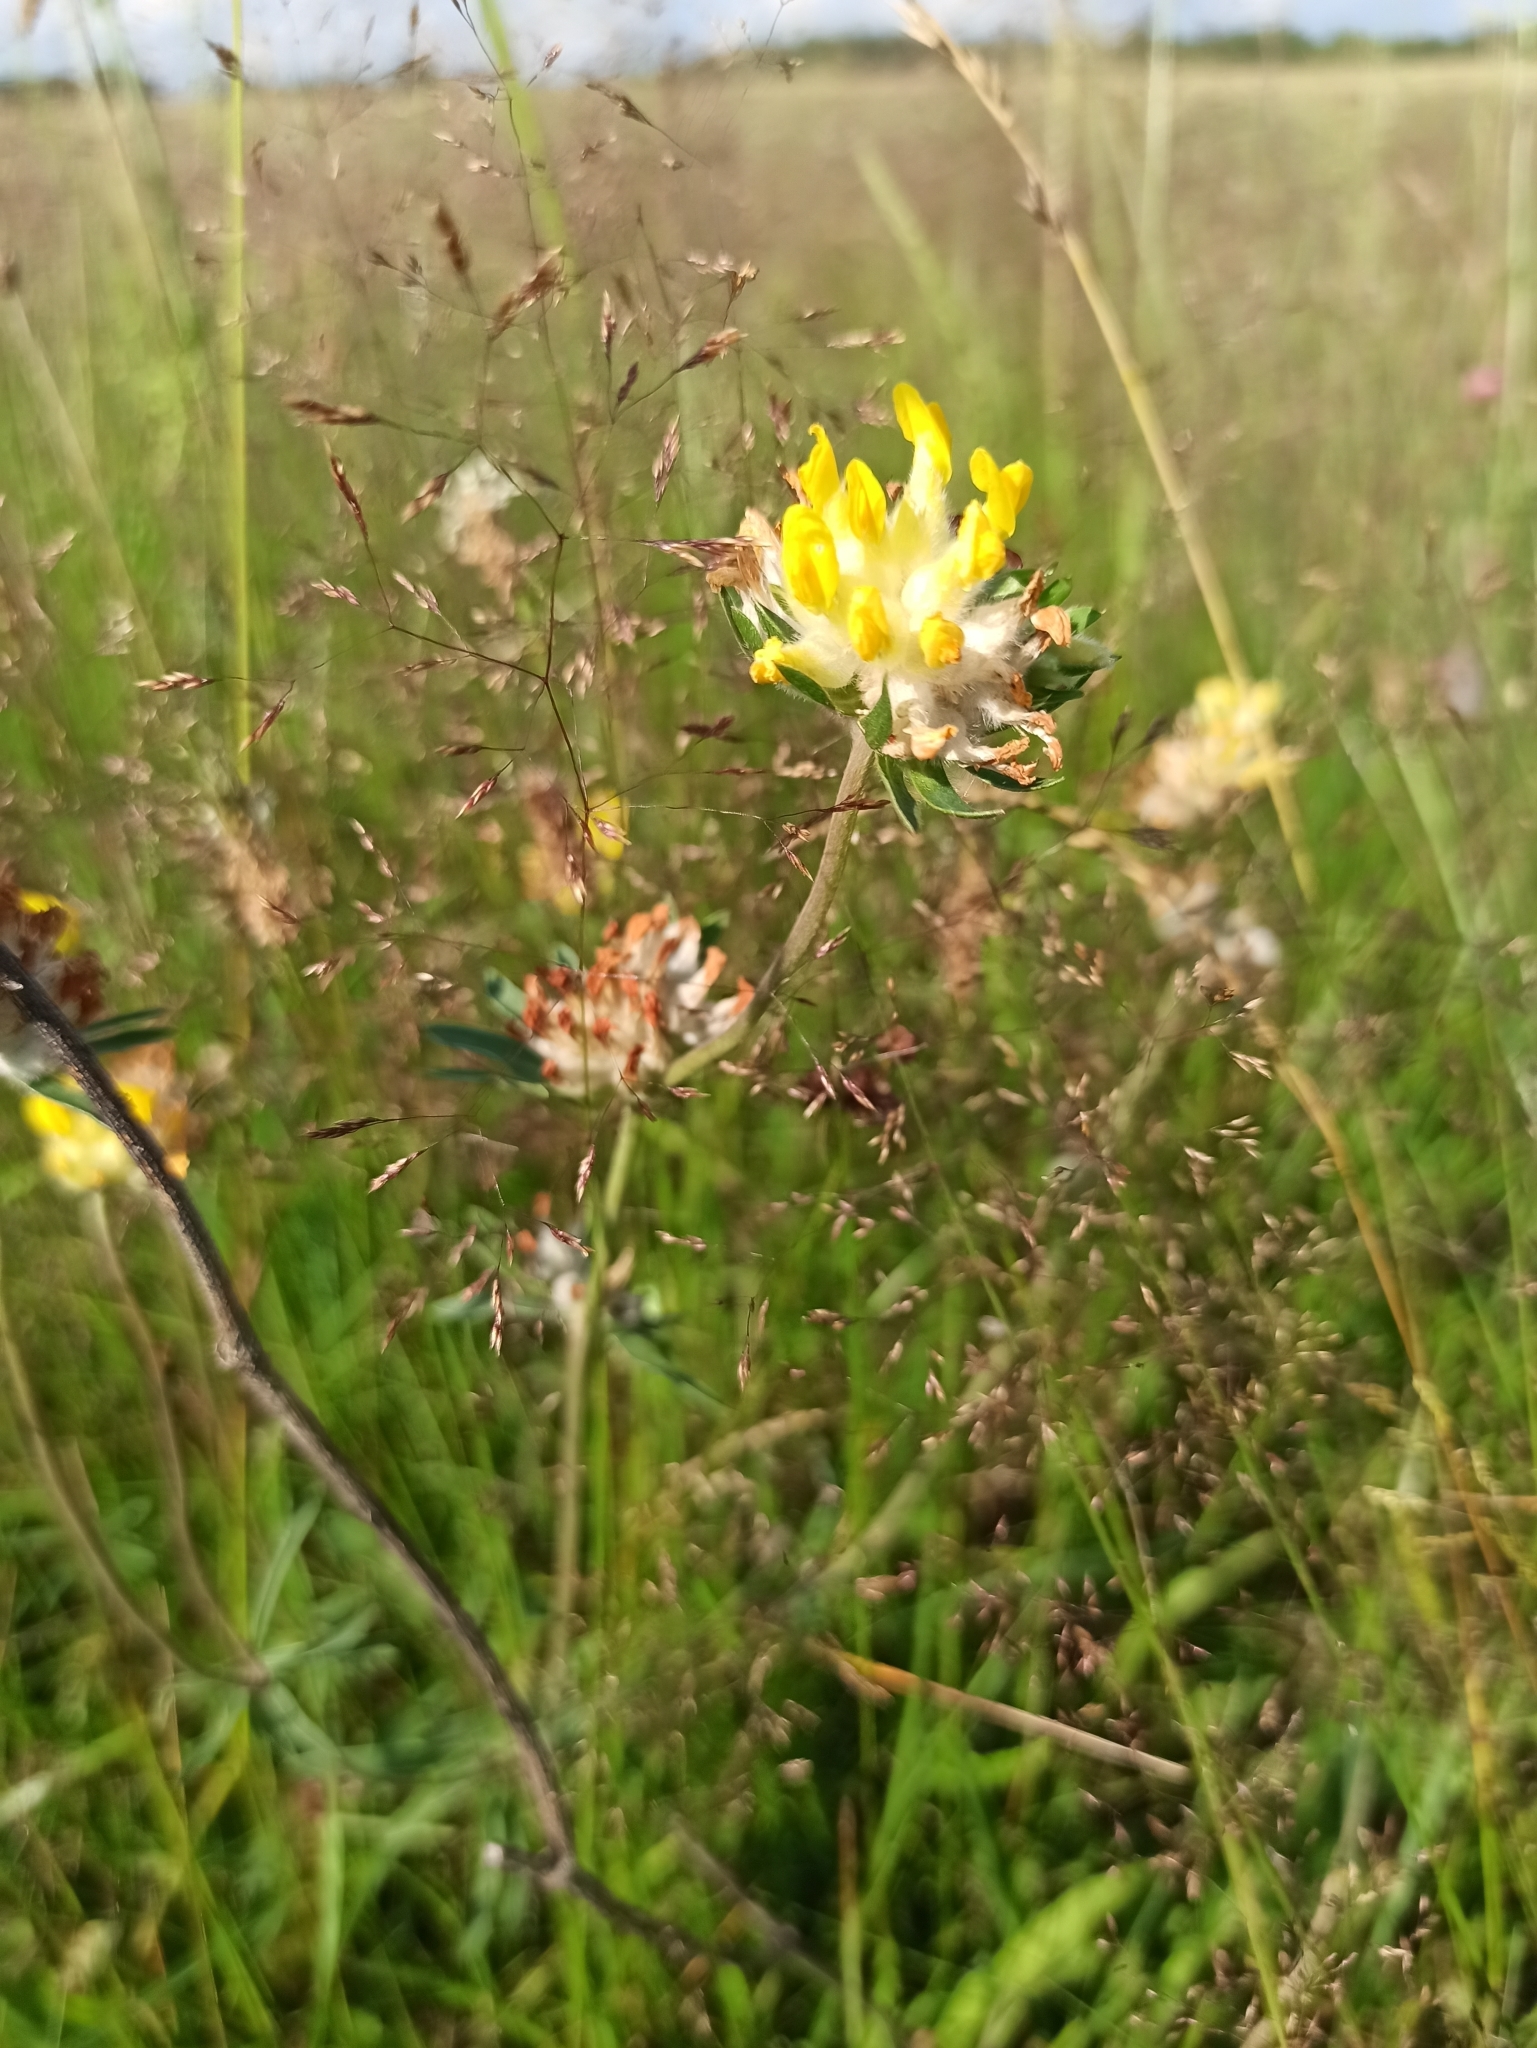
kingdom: Plantae
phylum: Tracheophyta
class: Magnoliopsida
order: Fabales
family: Fabaceae
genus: Anthyllis
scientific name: Anthyllis vulneraria
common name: Kidney vetch
